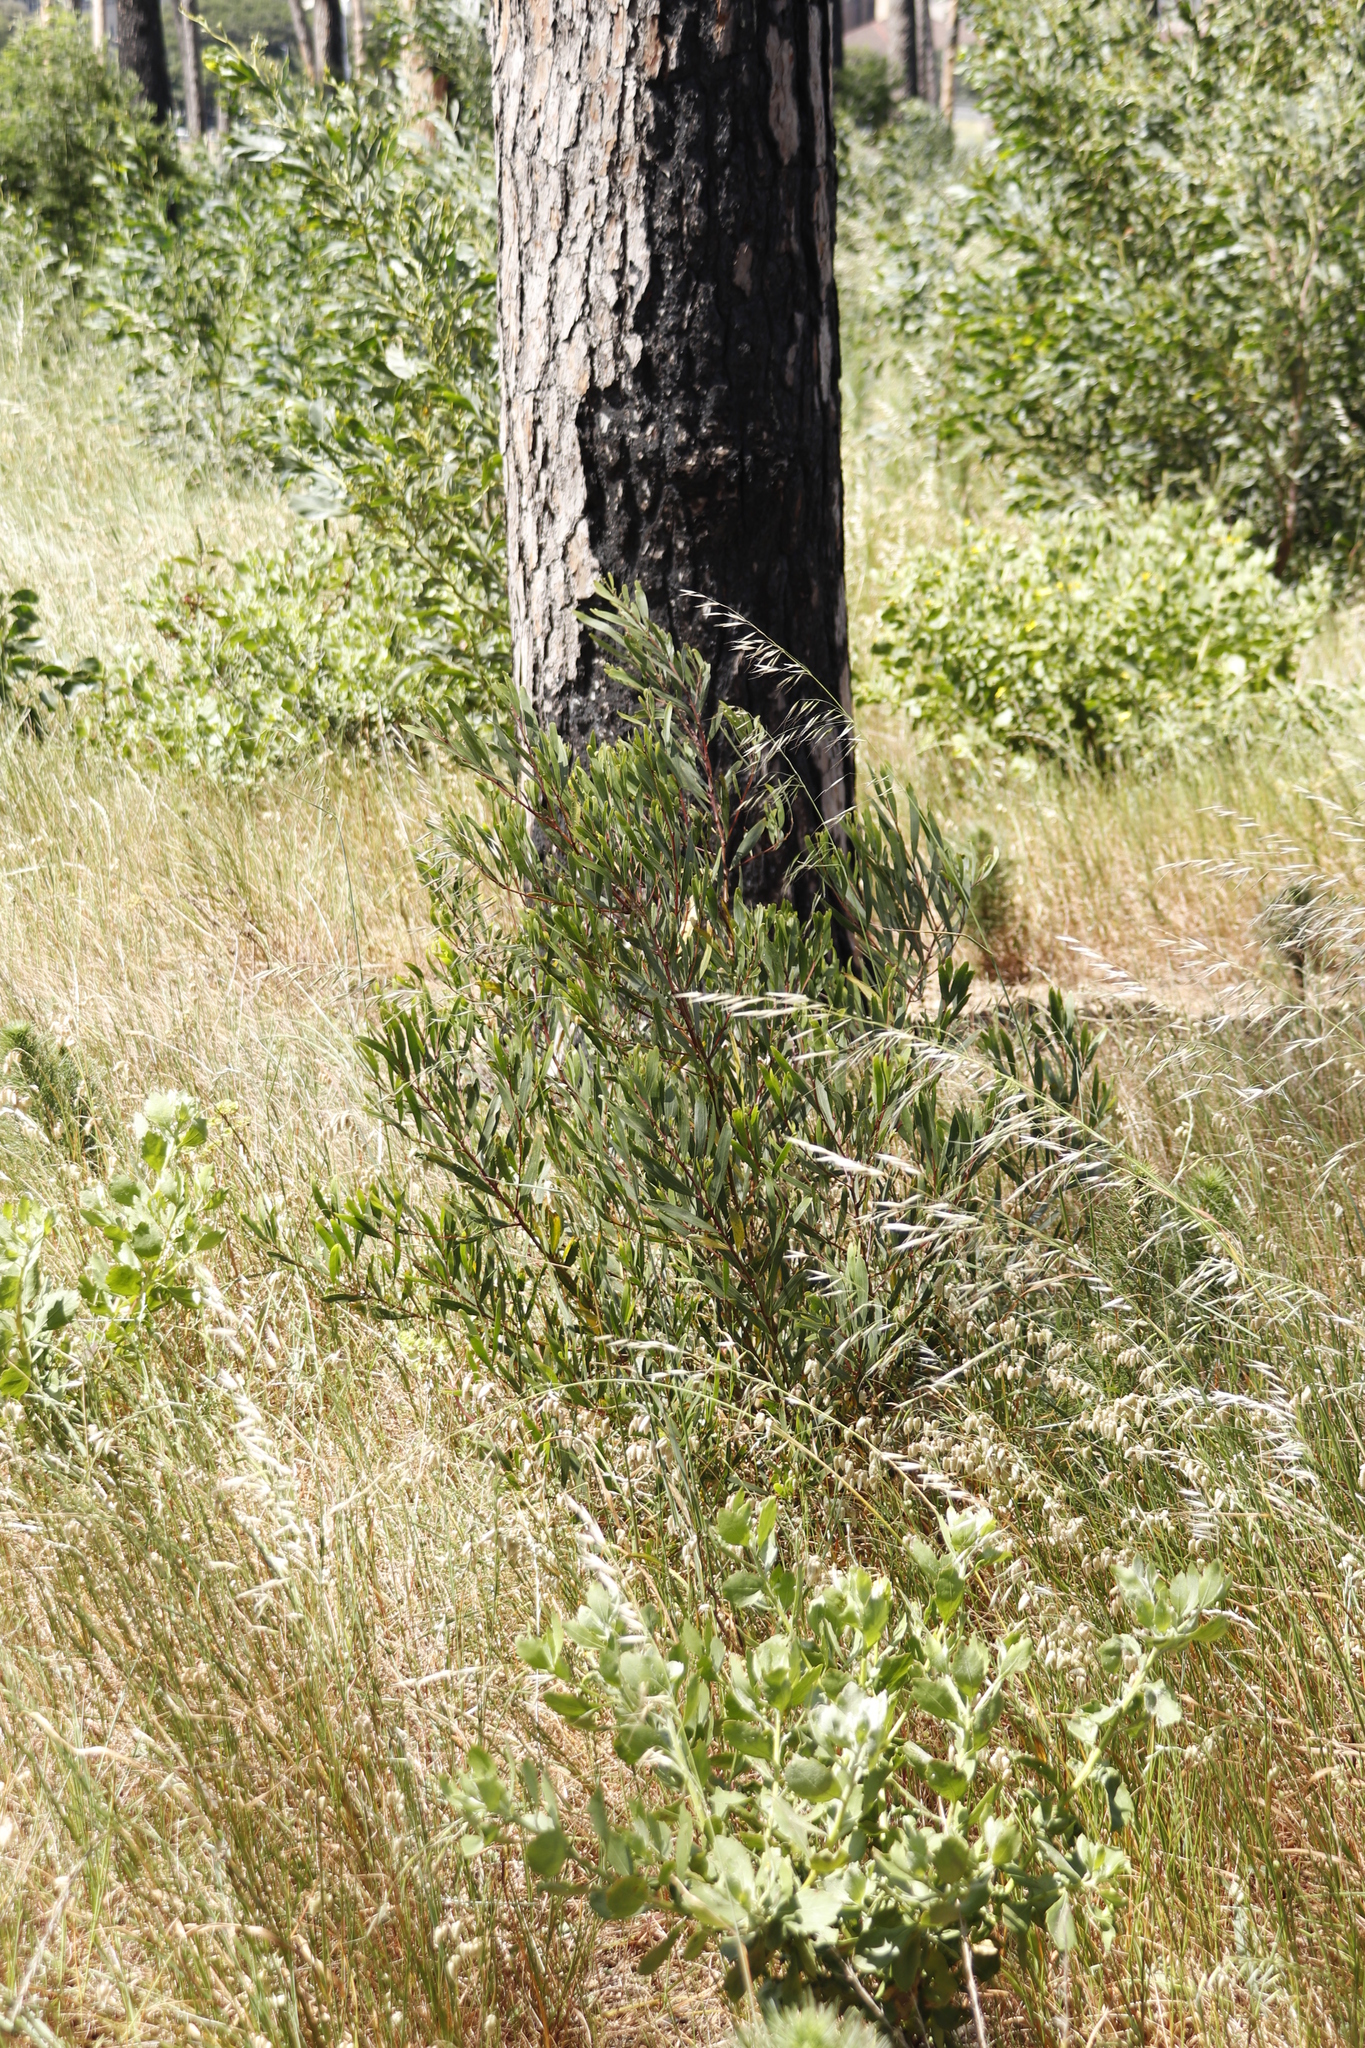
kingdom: Plantae
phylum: Tracheophyta
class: Magnoliopsida
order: Fabales
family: Fabaceae
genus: Acacia
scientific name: Acacia longifolia
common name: Sydney golden wattle
